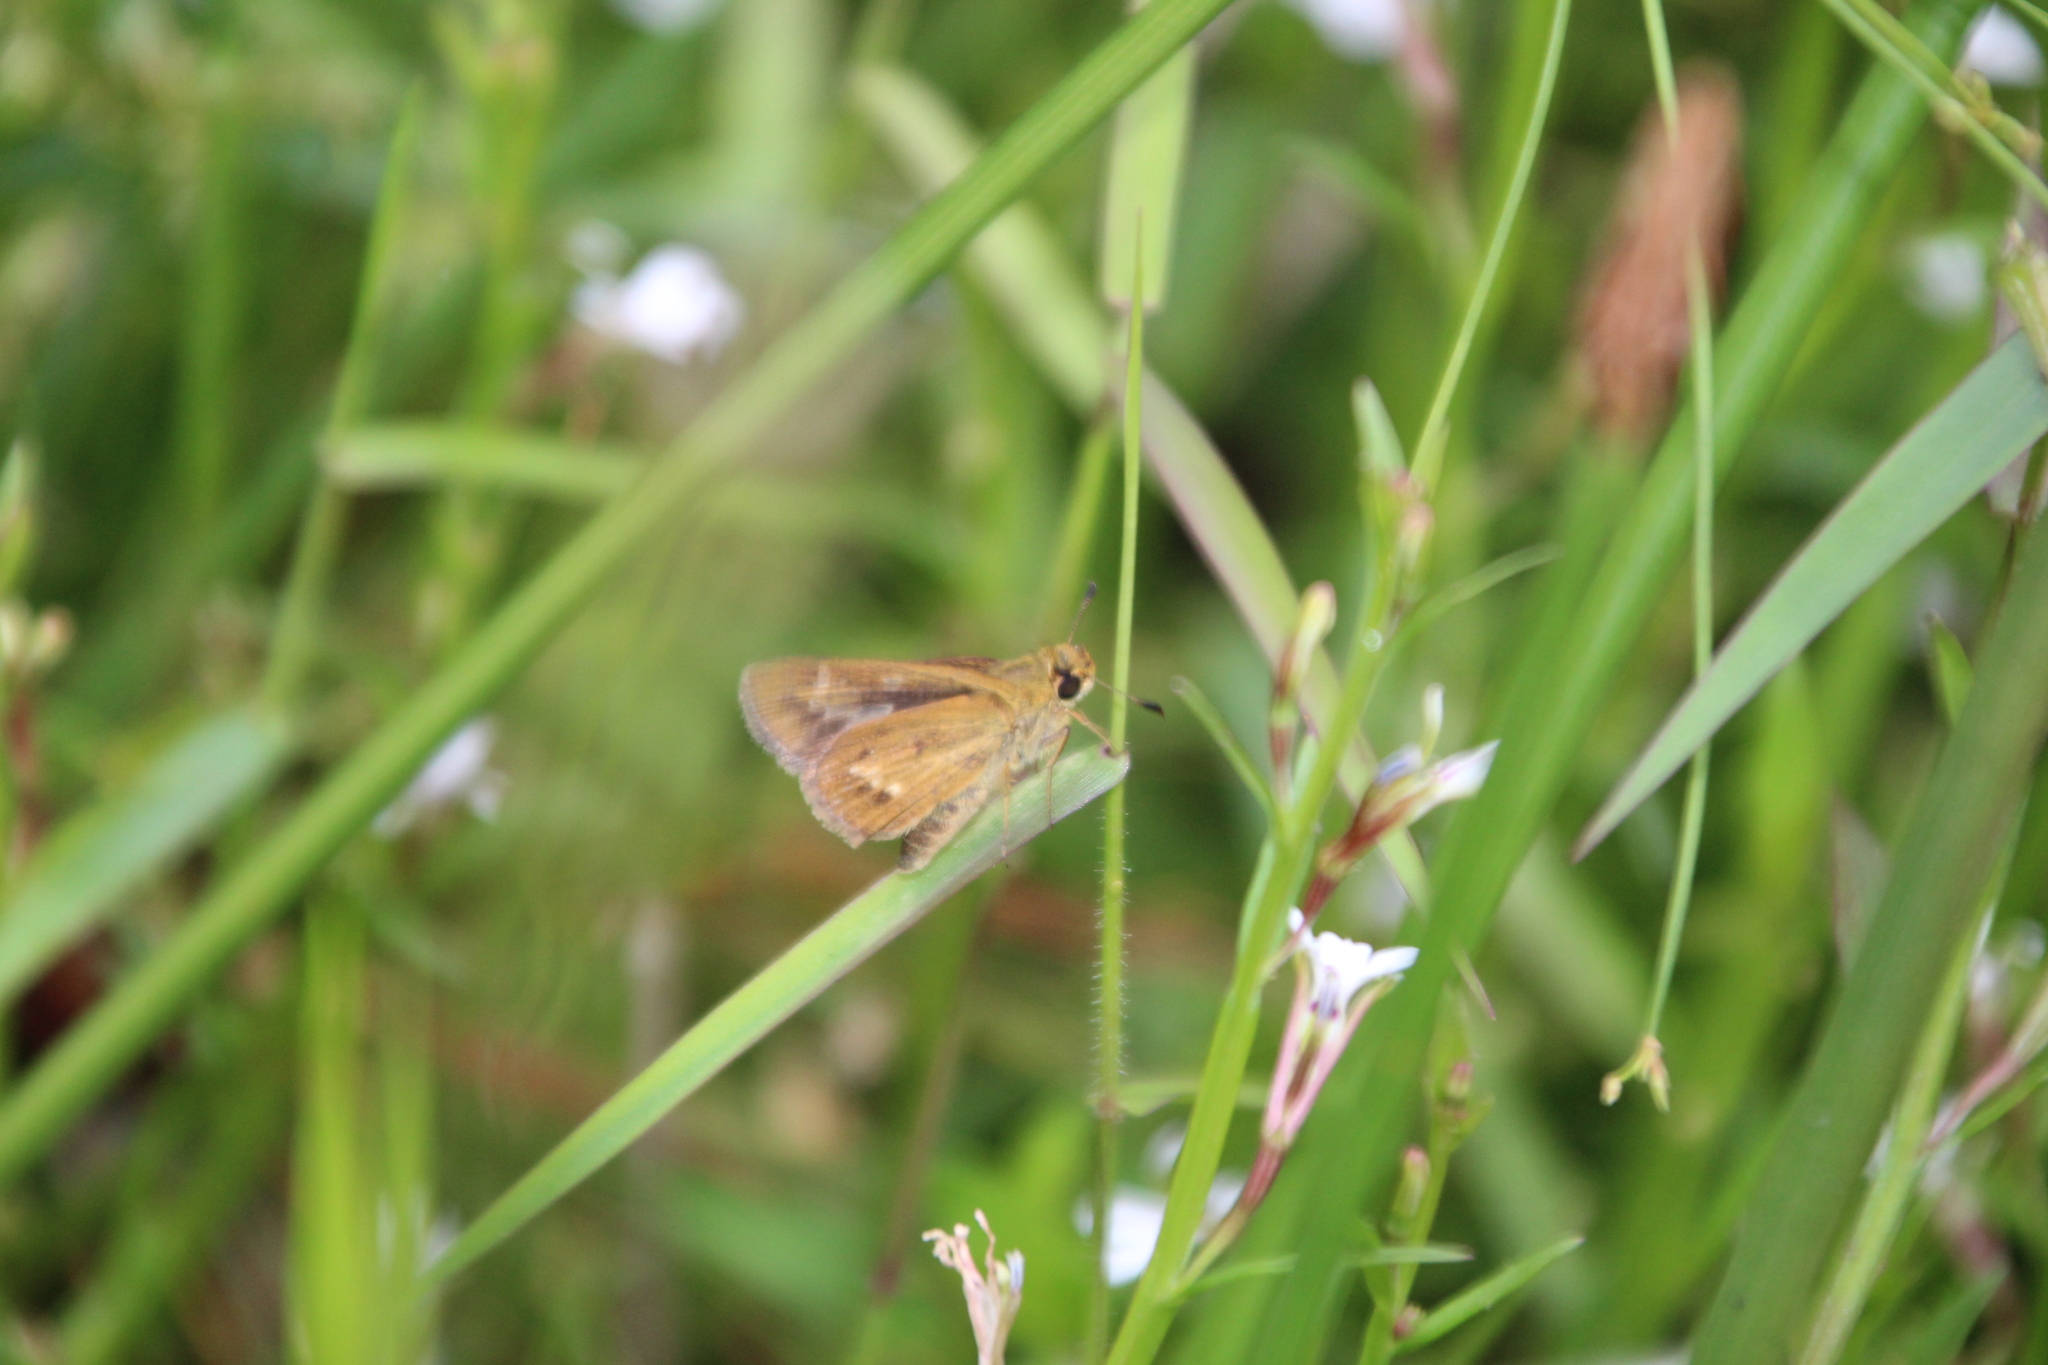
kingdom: Animalia
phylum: Arthropoda
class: Insecta
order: Lepidoptera
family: Hesperiidae
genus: Parnara
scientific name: Parnara naso
